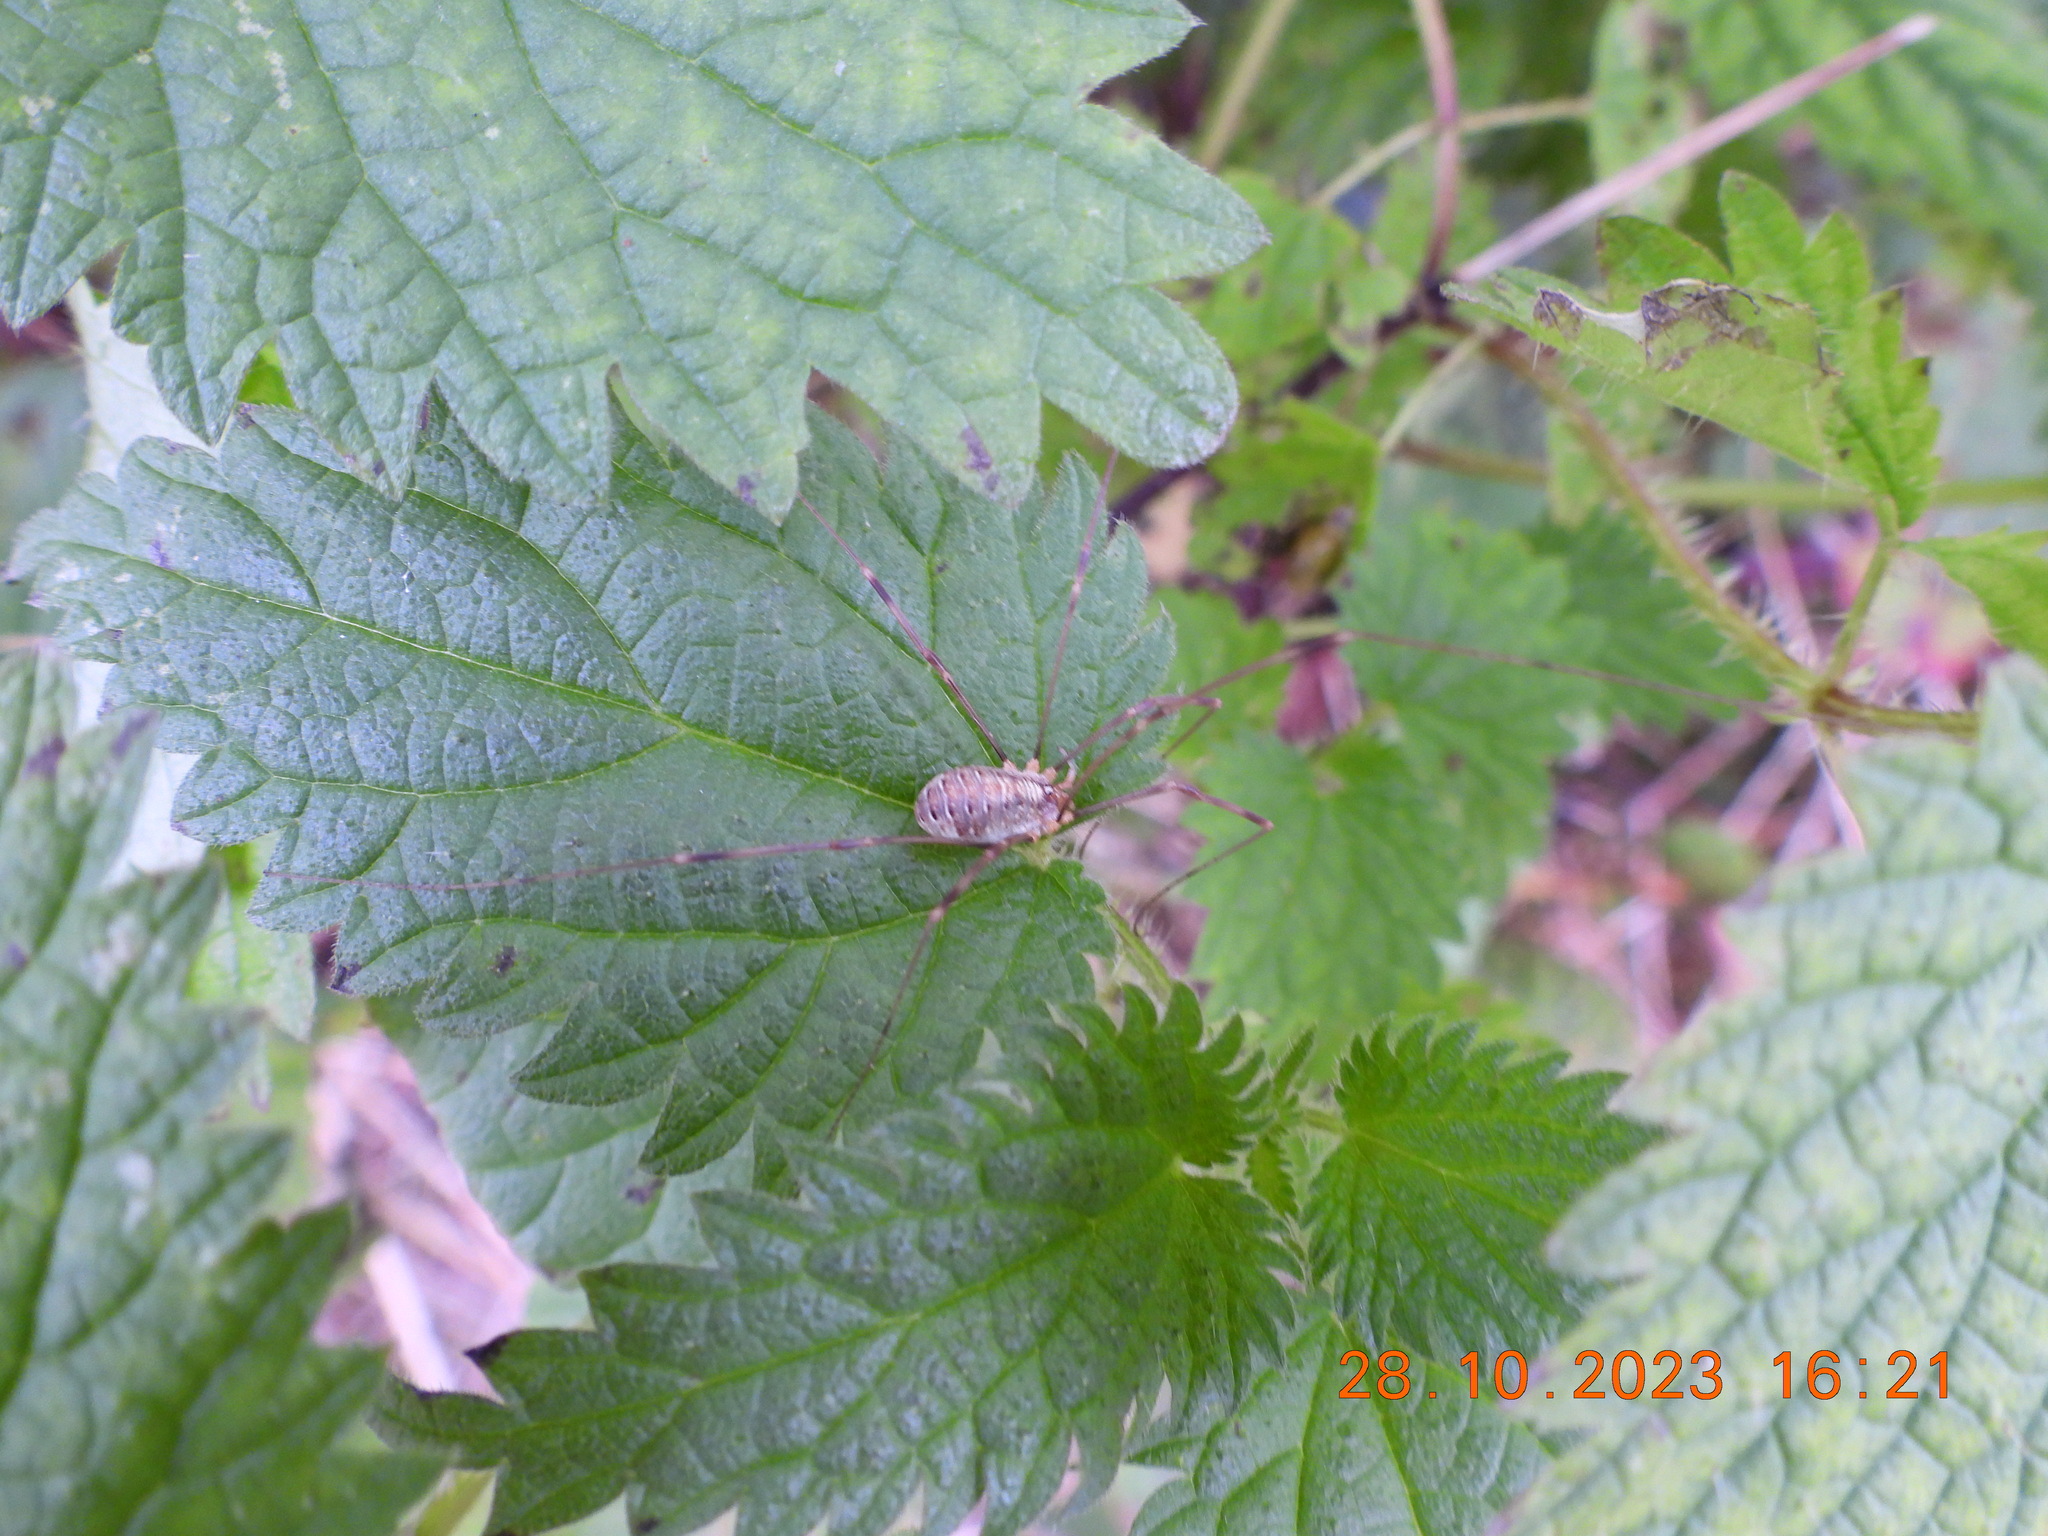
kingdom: Animalia
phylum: Arthropoda
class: Arachnida
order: Opiliones
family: Phalangiidae
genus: Opilio
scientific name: Opilio canestrinii
